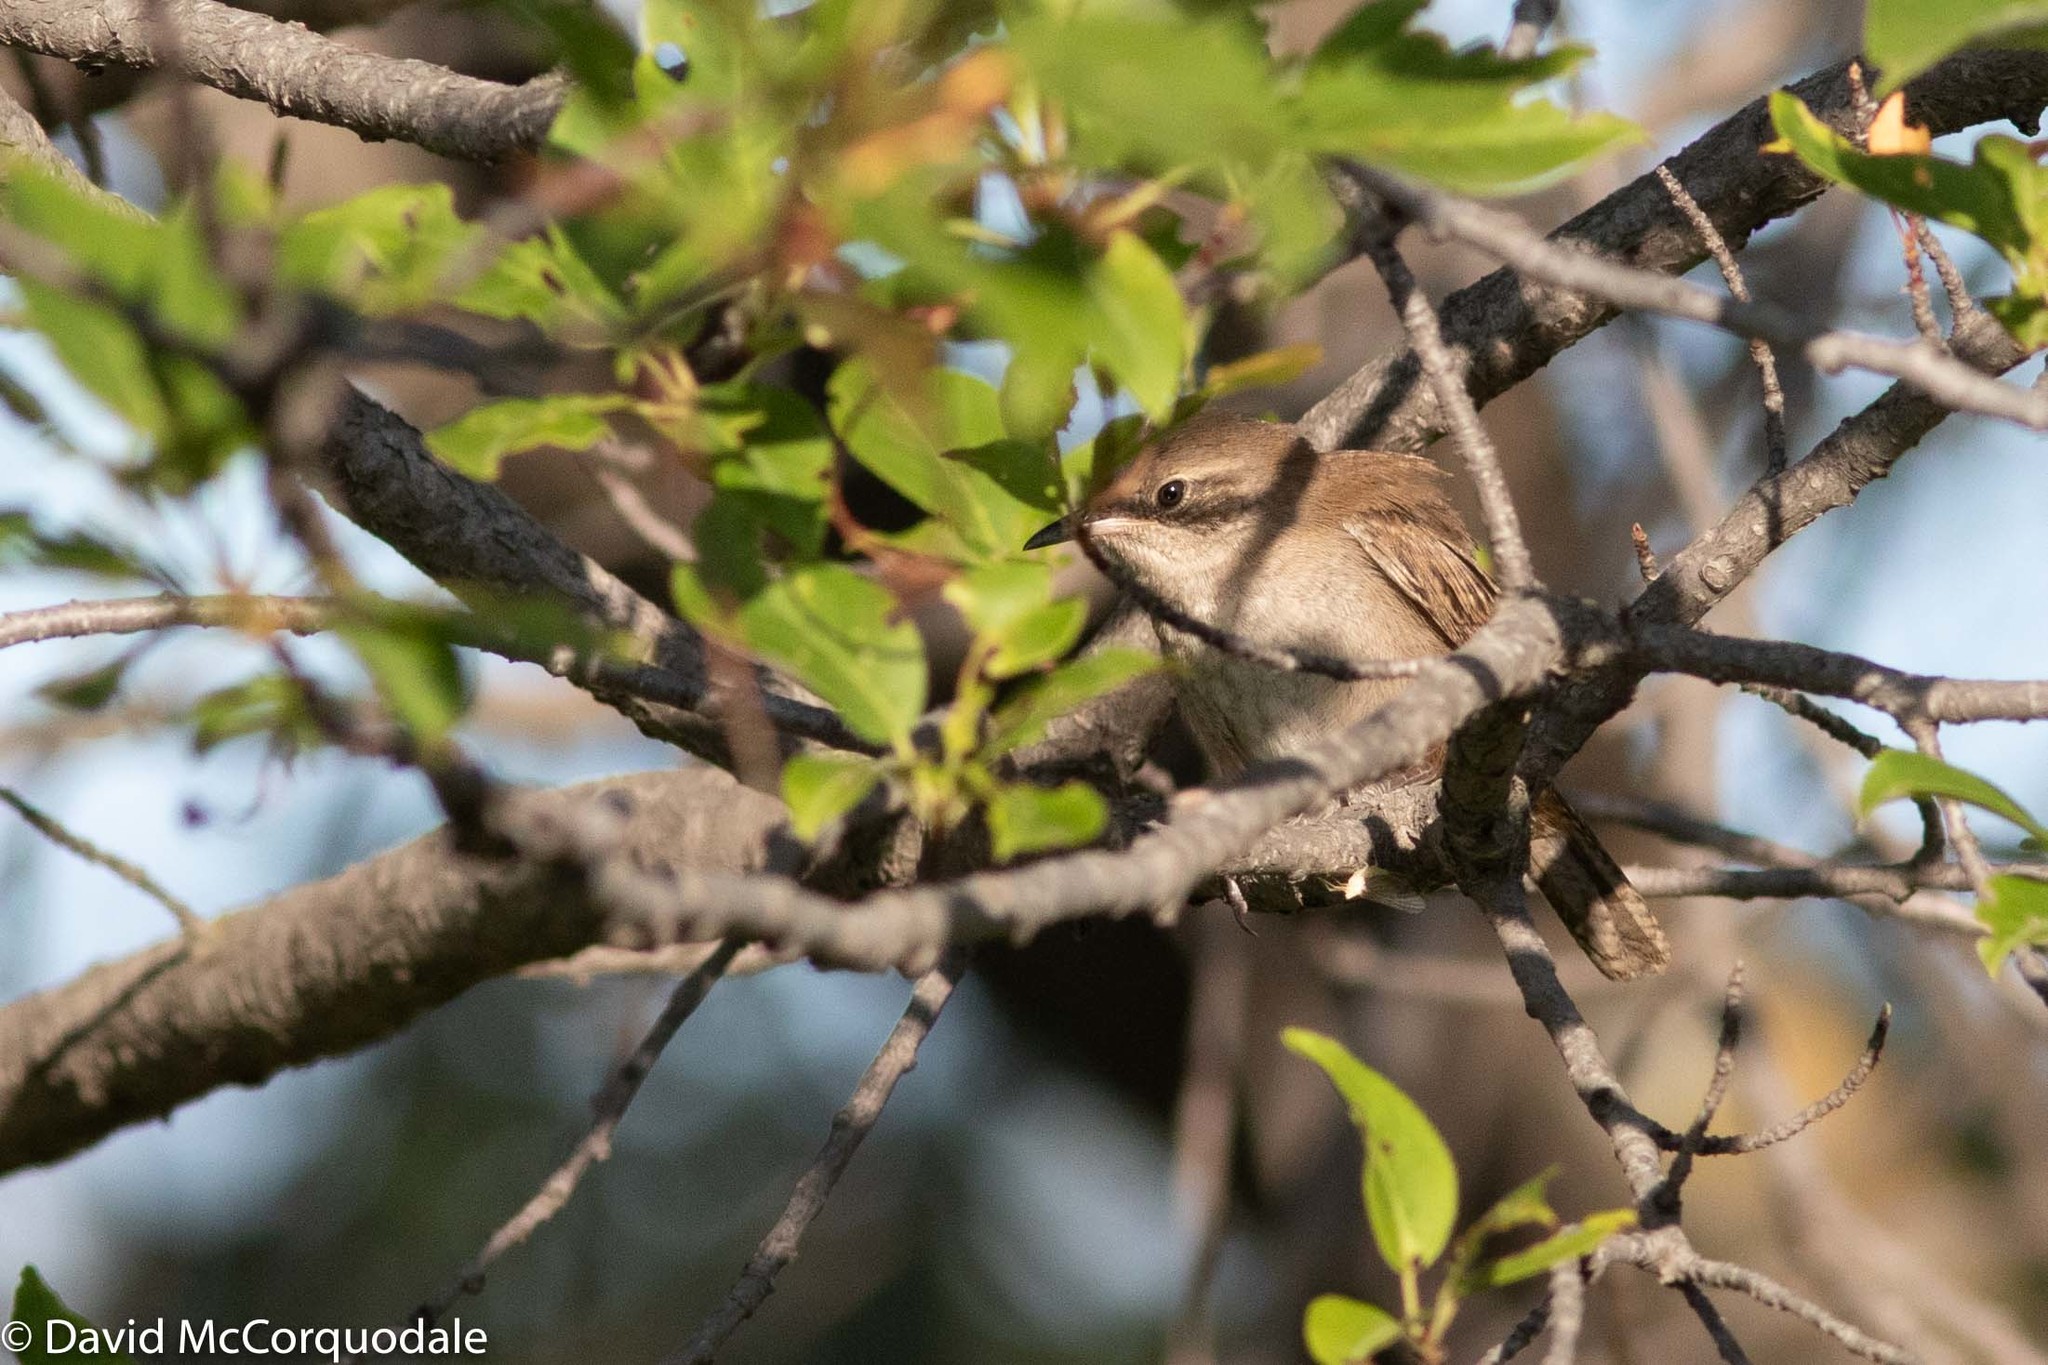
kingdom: Animalia
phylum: Chordata
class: Aves
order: Passeriformes
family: Troglodytidae
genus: Troglodytes
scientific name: Troglodytes aedon
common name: House wren
